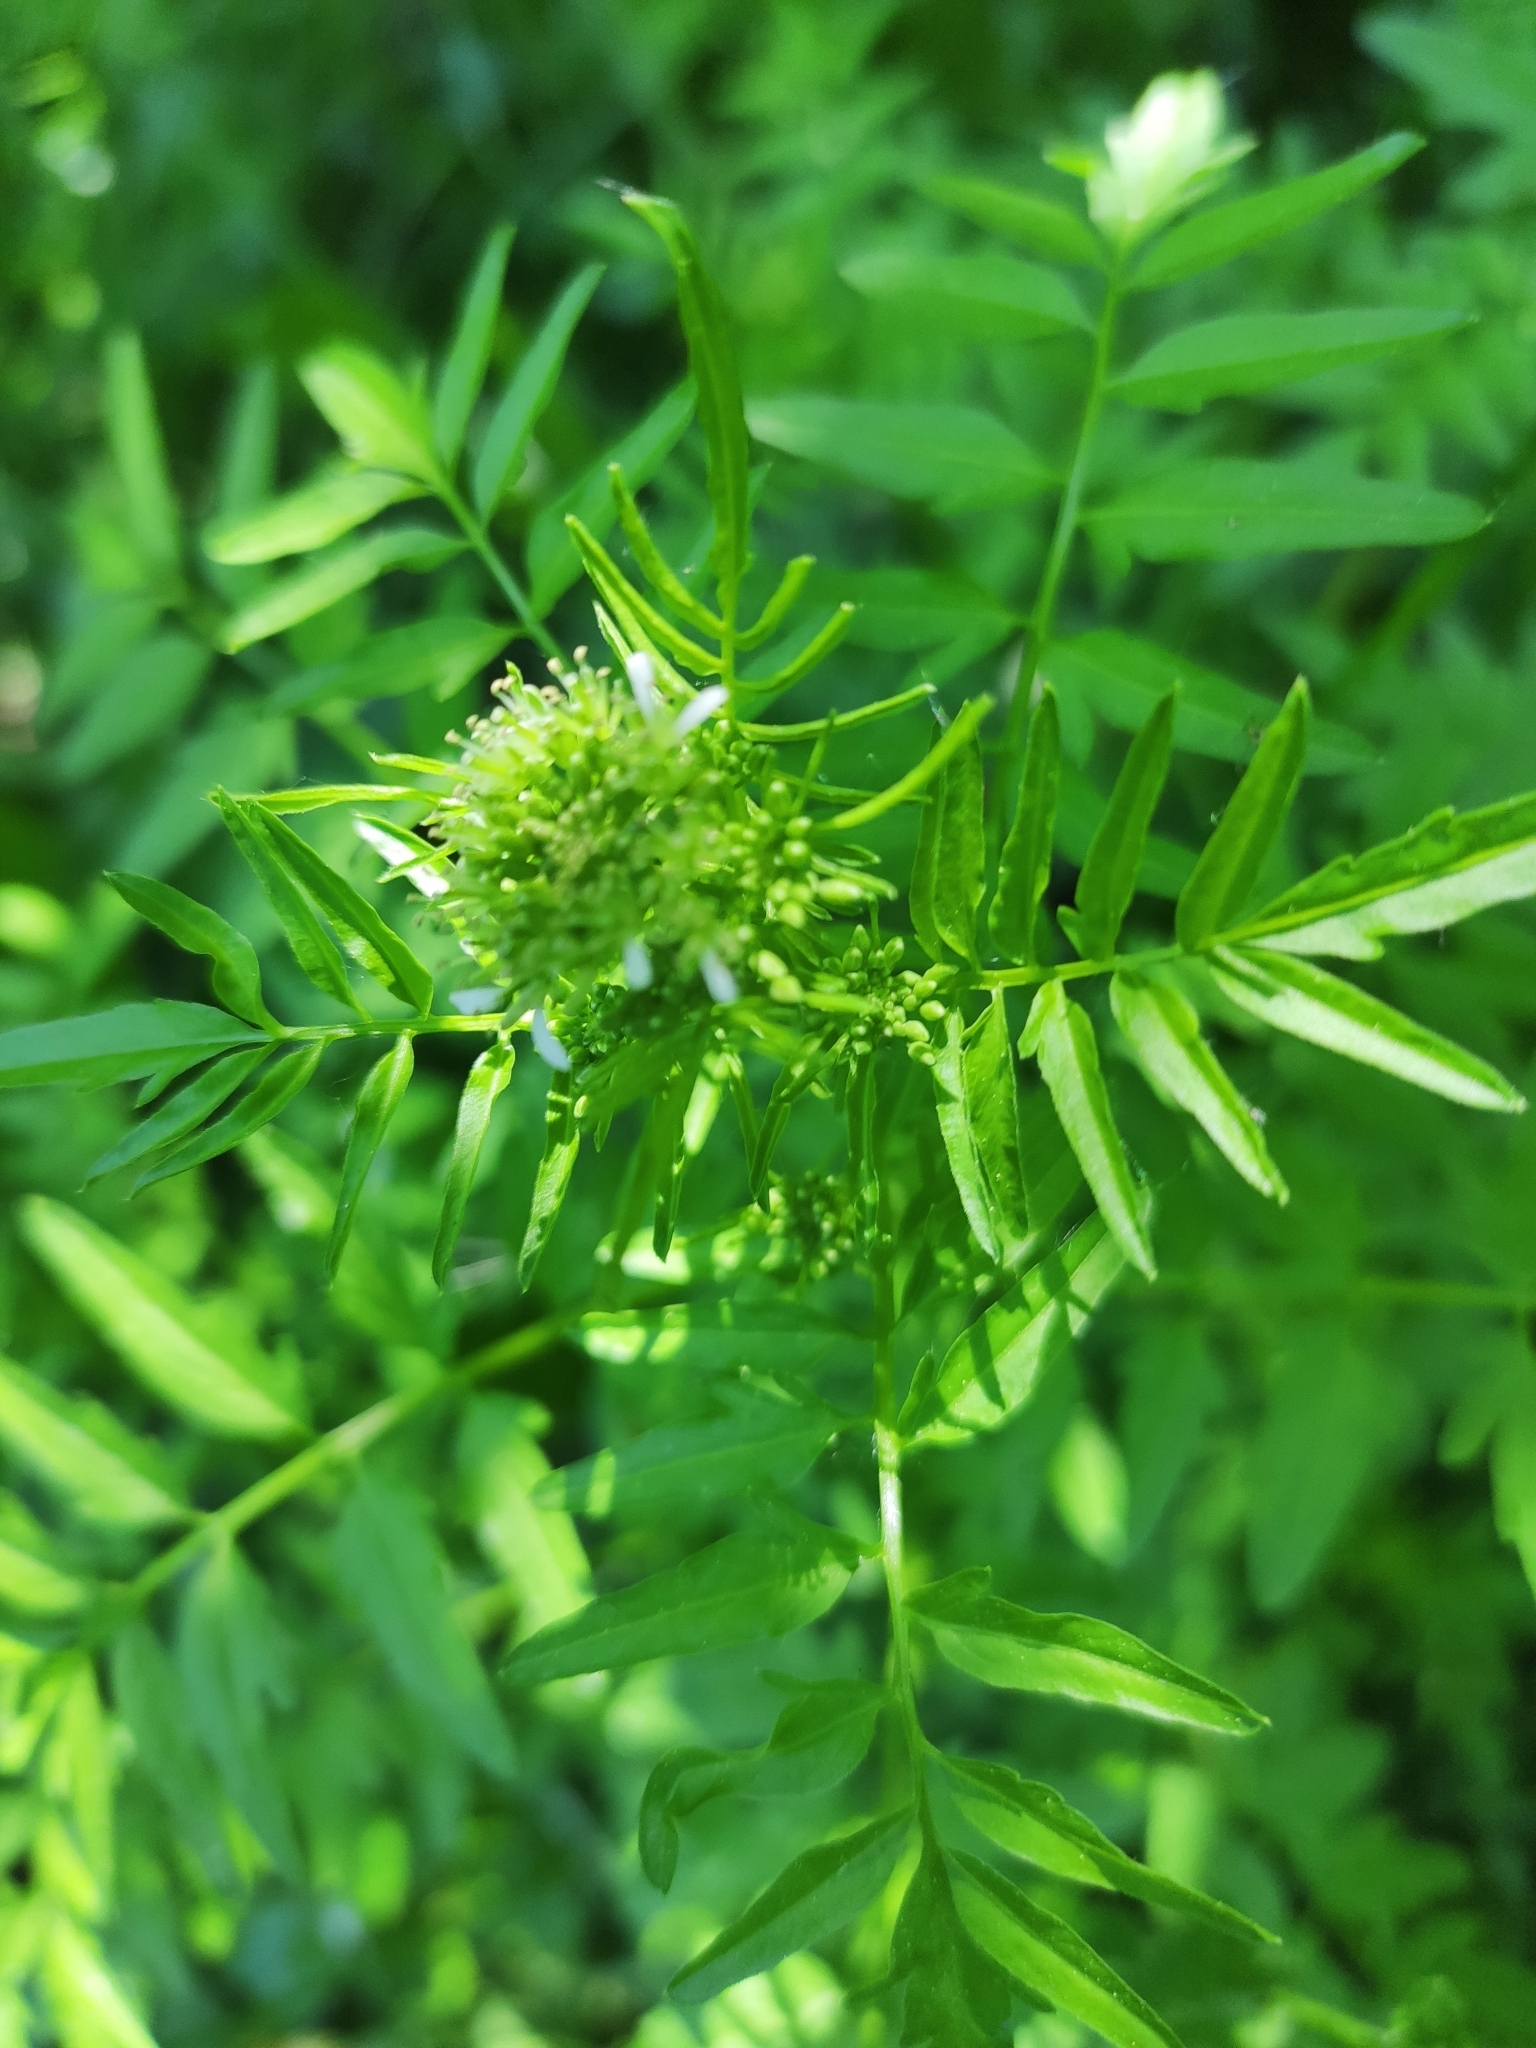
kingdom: Plantae
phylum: Tracheophyta
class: Magnoliopsida
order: Brassicales
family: Brassicaceae
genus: Cardamine
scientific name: Cardamine impatiens
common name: Narrow-leaved bitter-cress
